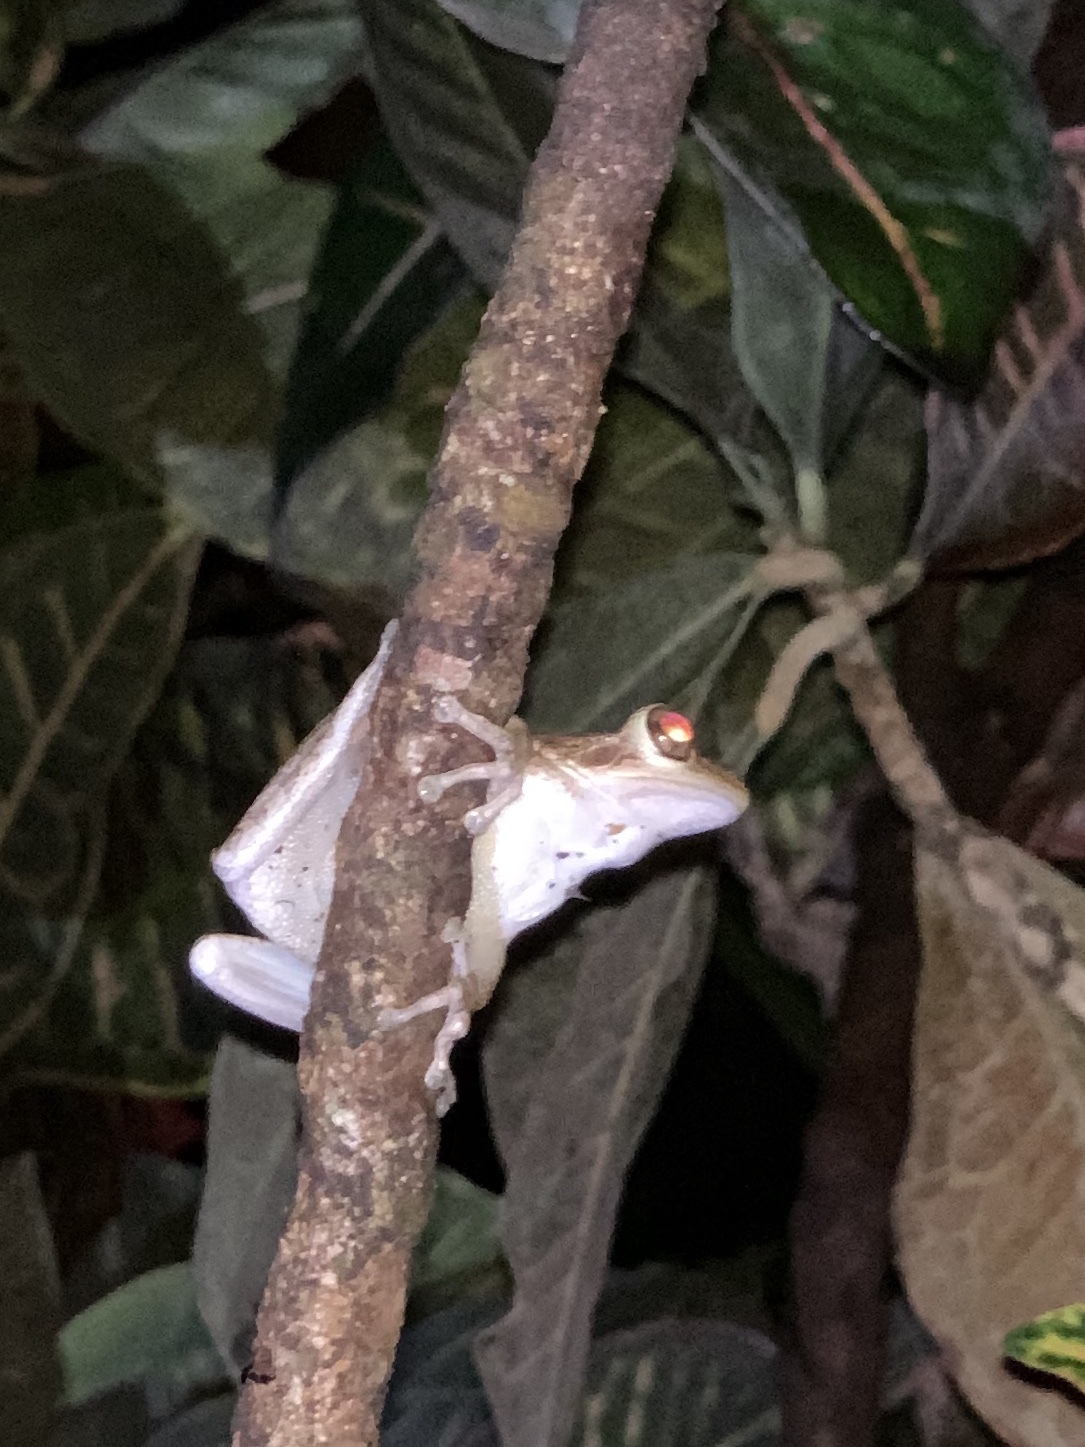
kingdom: Animalia
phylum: Chordata
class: Amphibia
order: Anura
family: Hylidae
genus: Osteopilus
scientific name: Osteopilus septentrionalis
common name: Cuban treefrog
